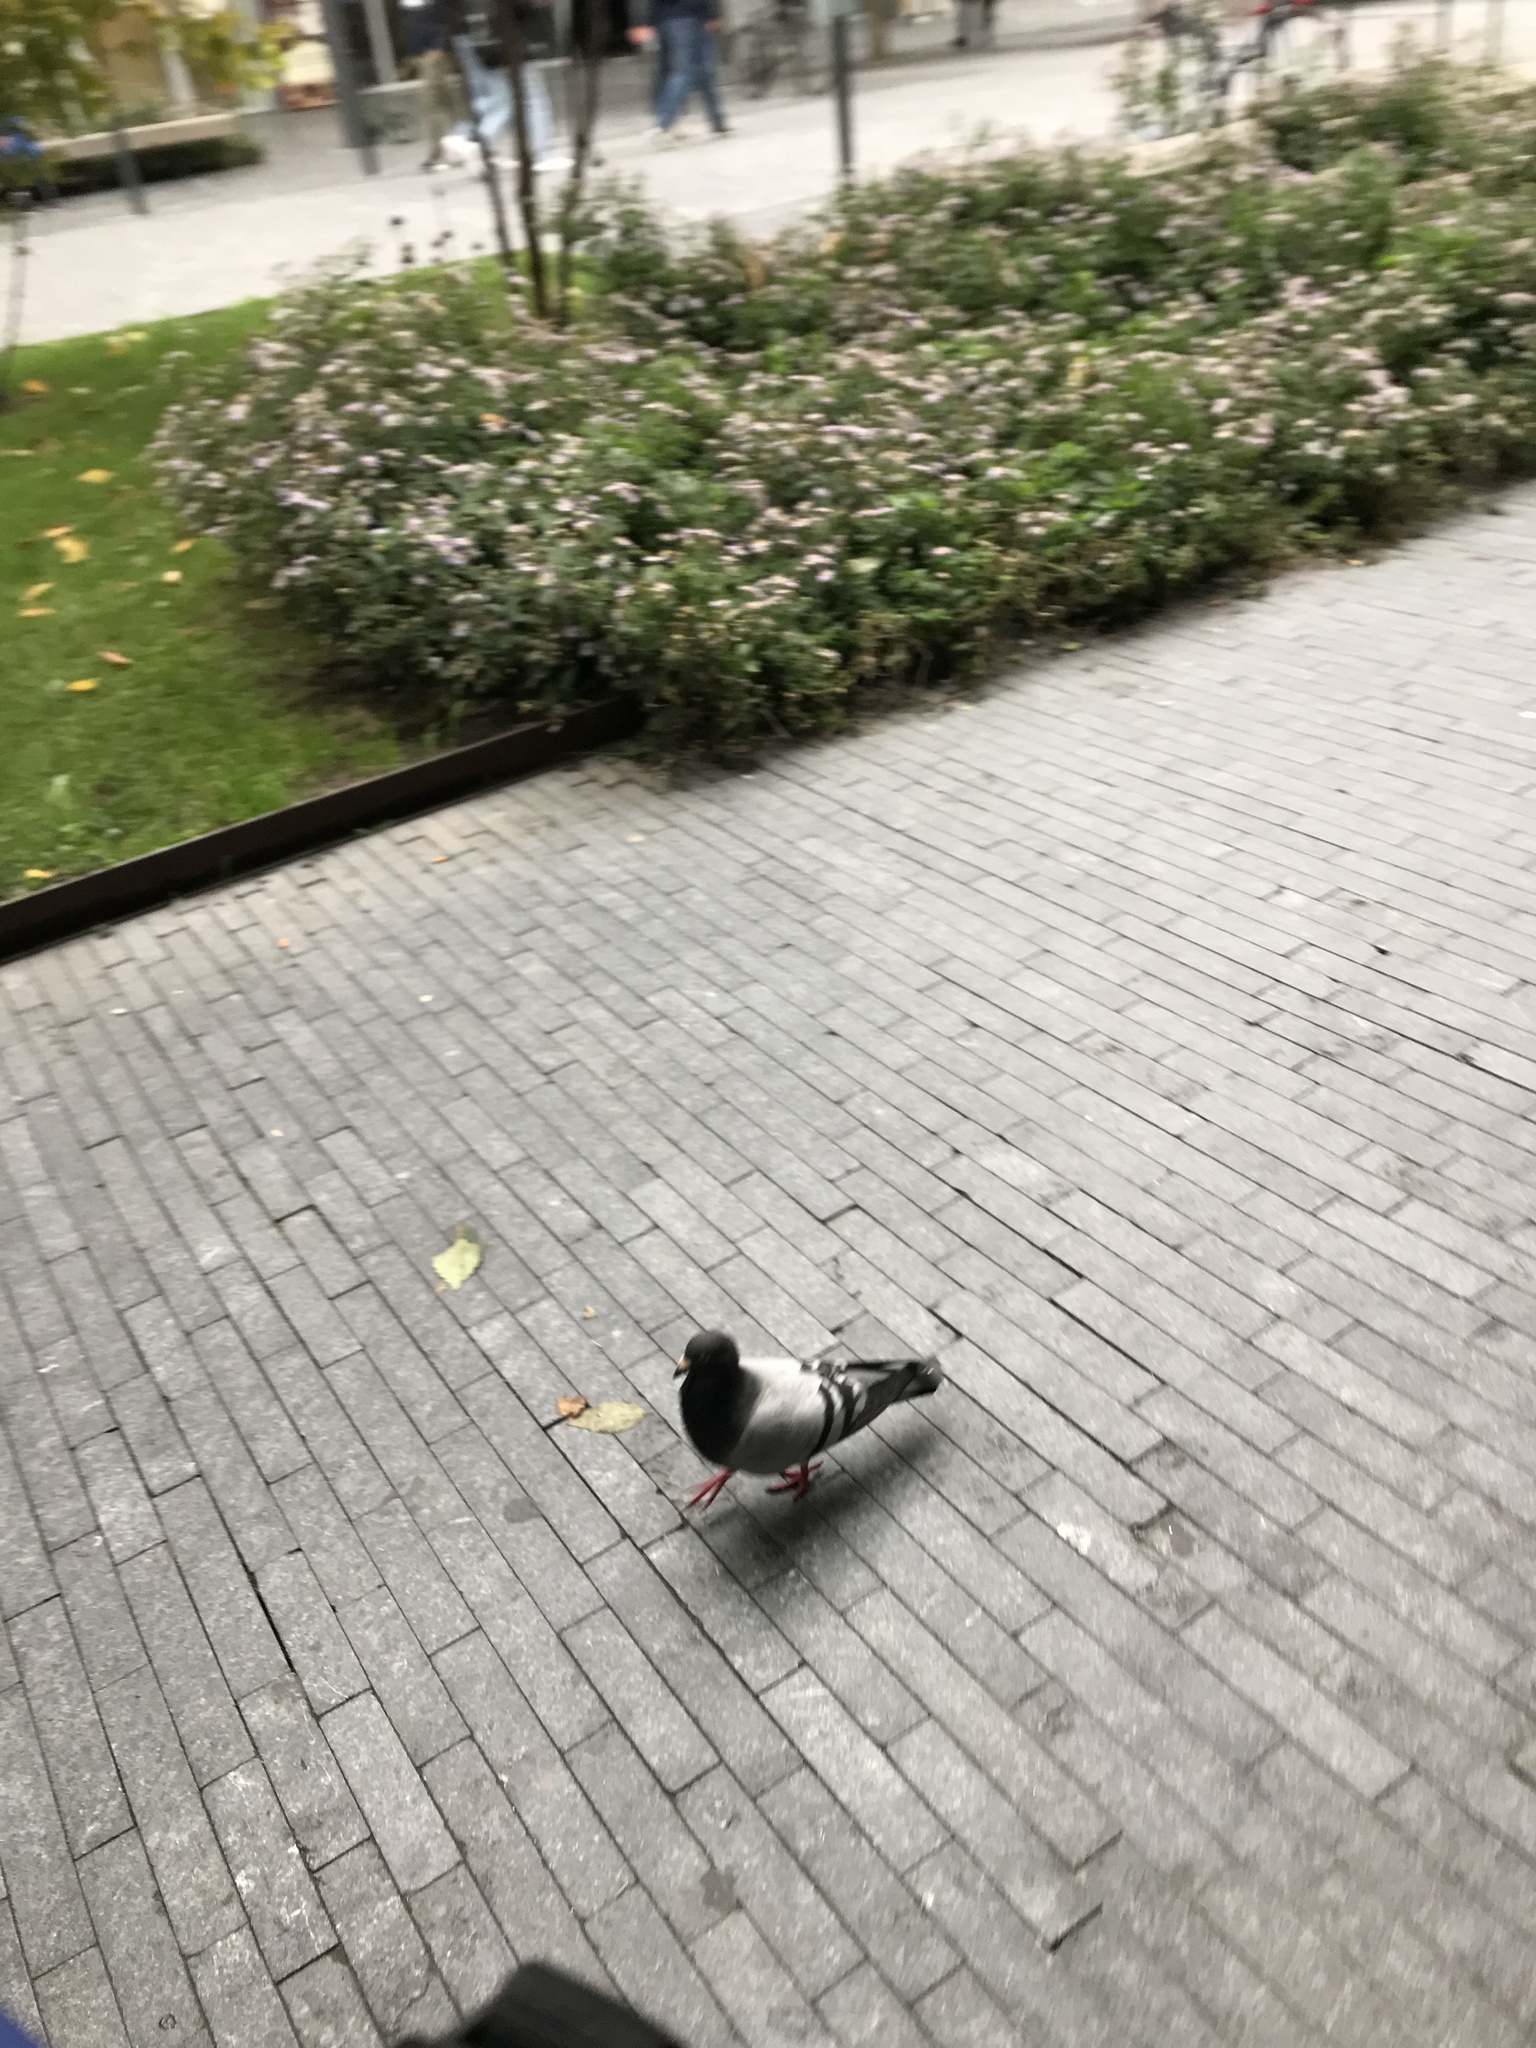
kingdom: Animalia
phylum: Chordata
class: Aves
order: Columbiformes
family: Columbidae
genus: Columba
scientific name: Columba livia
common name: Rock pigeon
